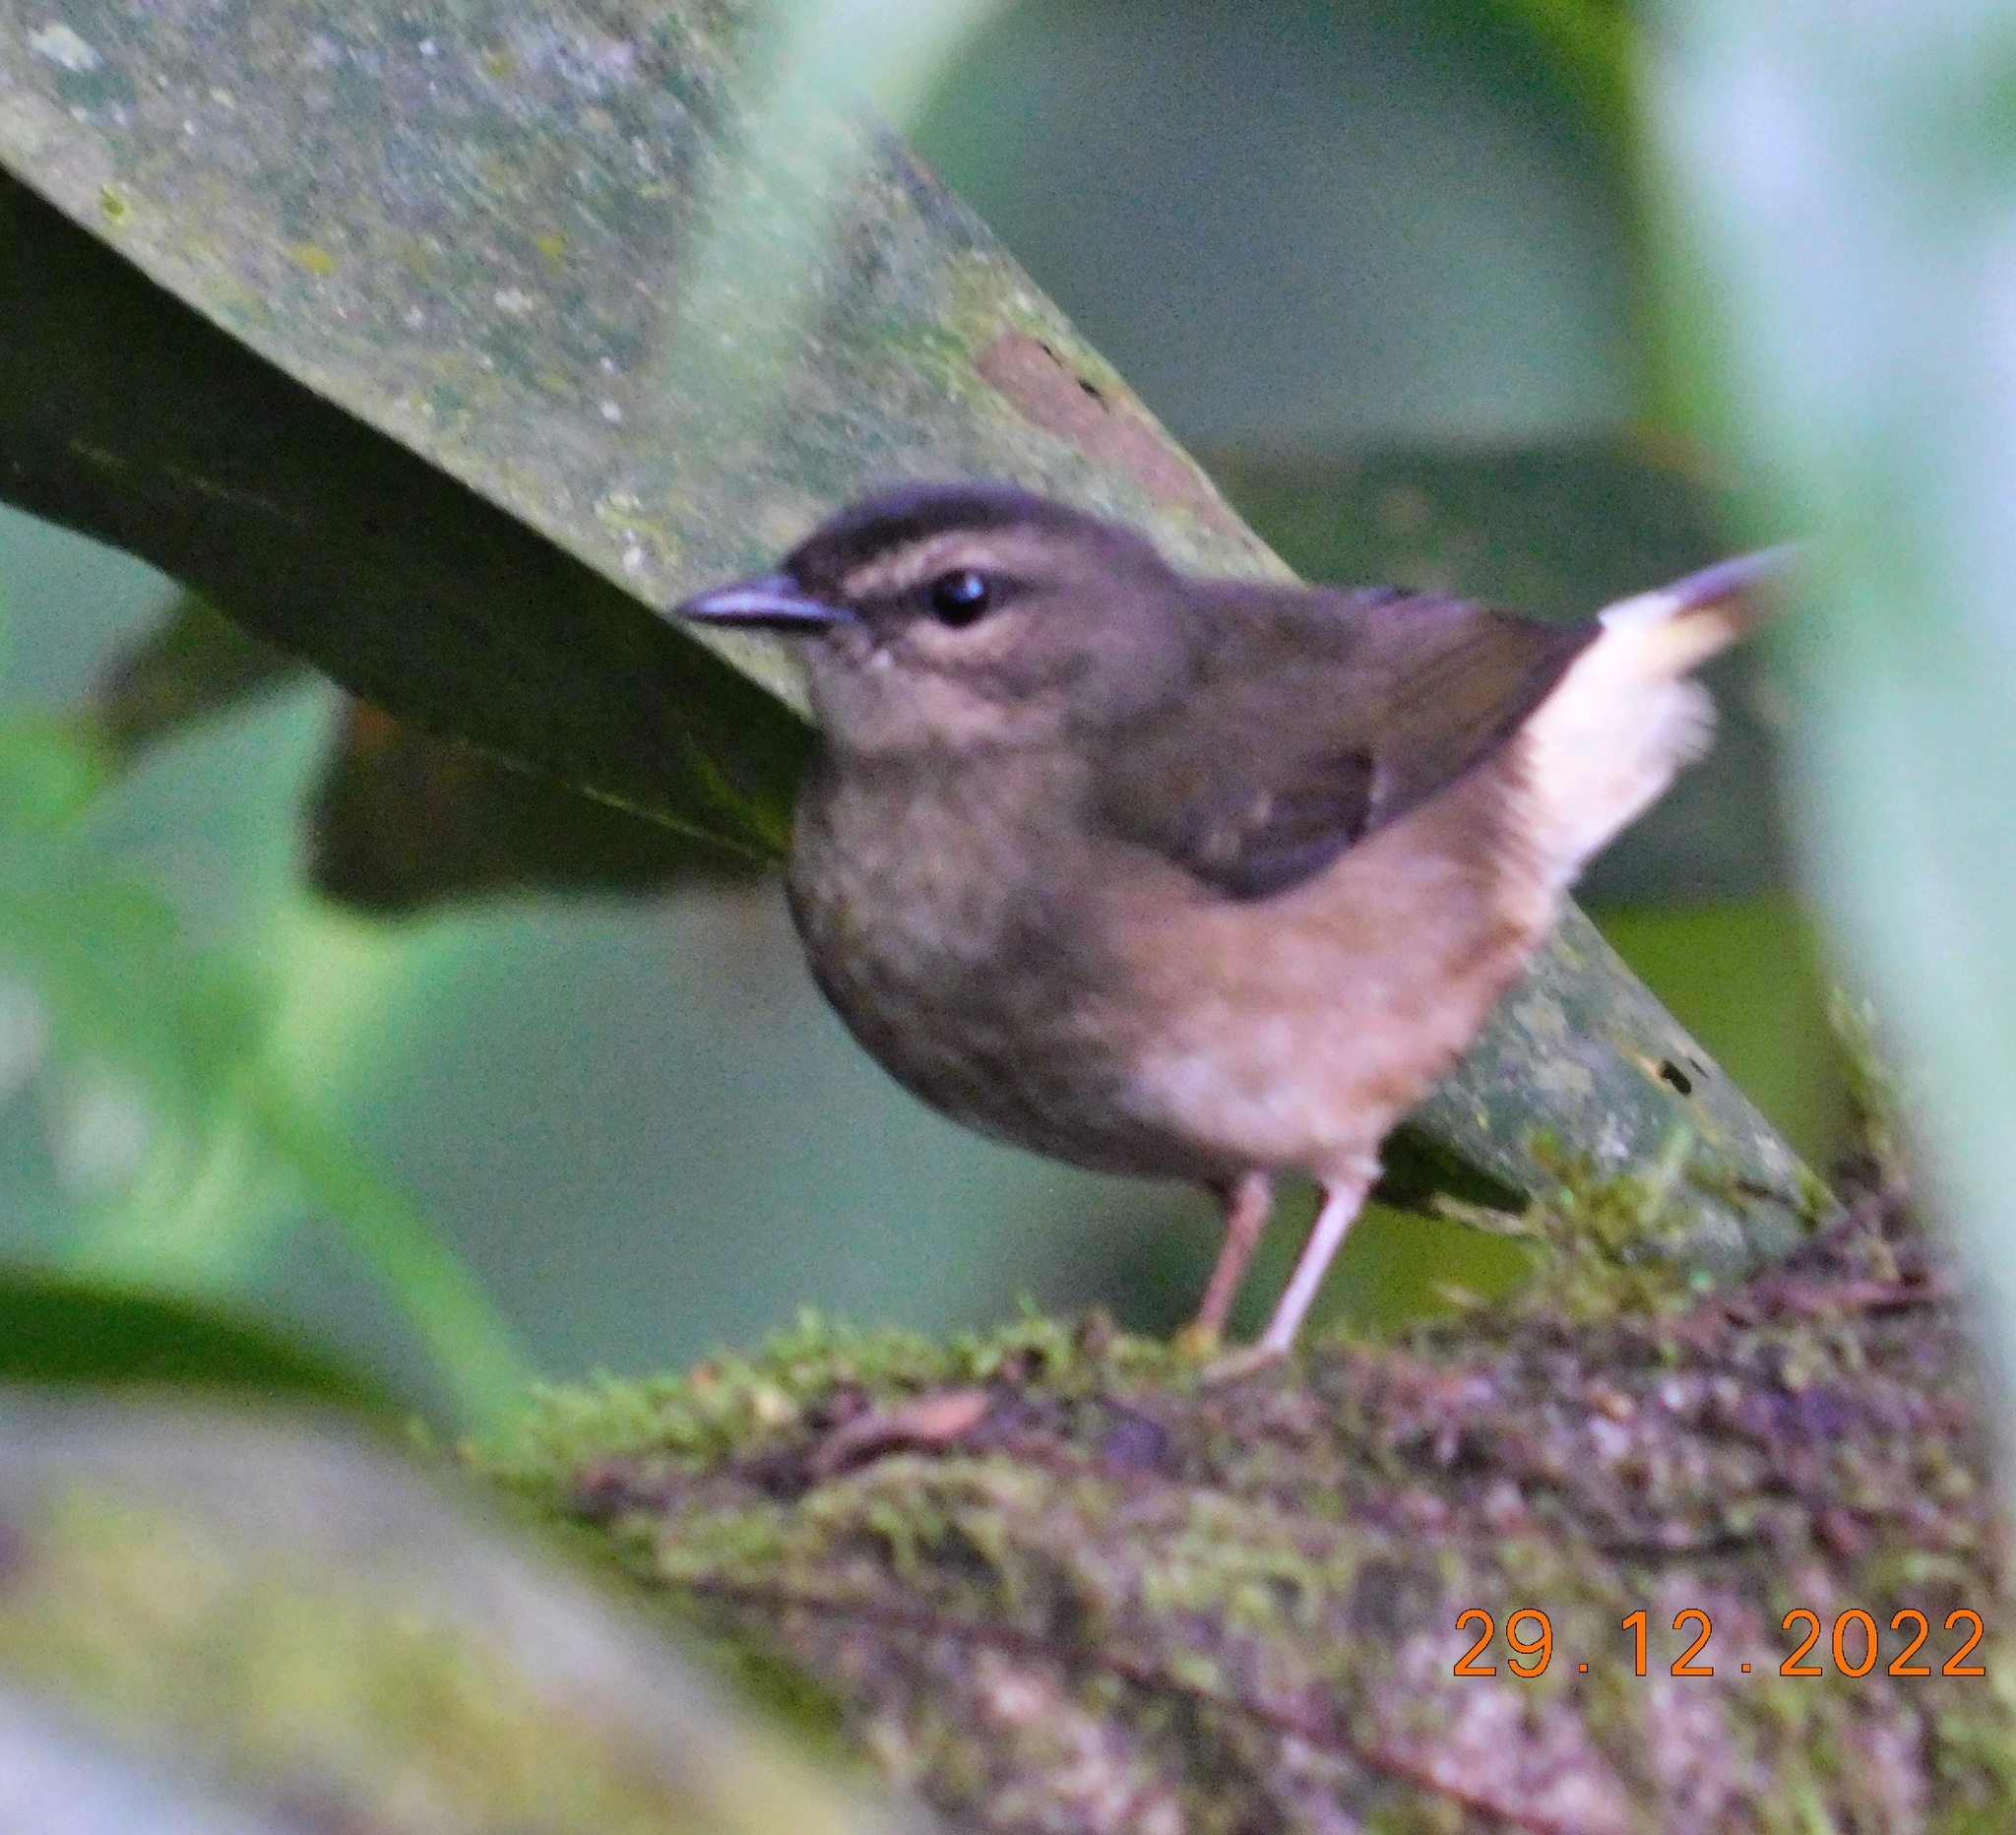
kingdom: Animalia
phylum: Chordata
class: Aves
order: Passeriformes
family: Parulidae
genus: Myiothlypis
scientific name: Myiothlypis fulvicauda
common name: Buff-rumped warbler
